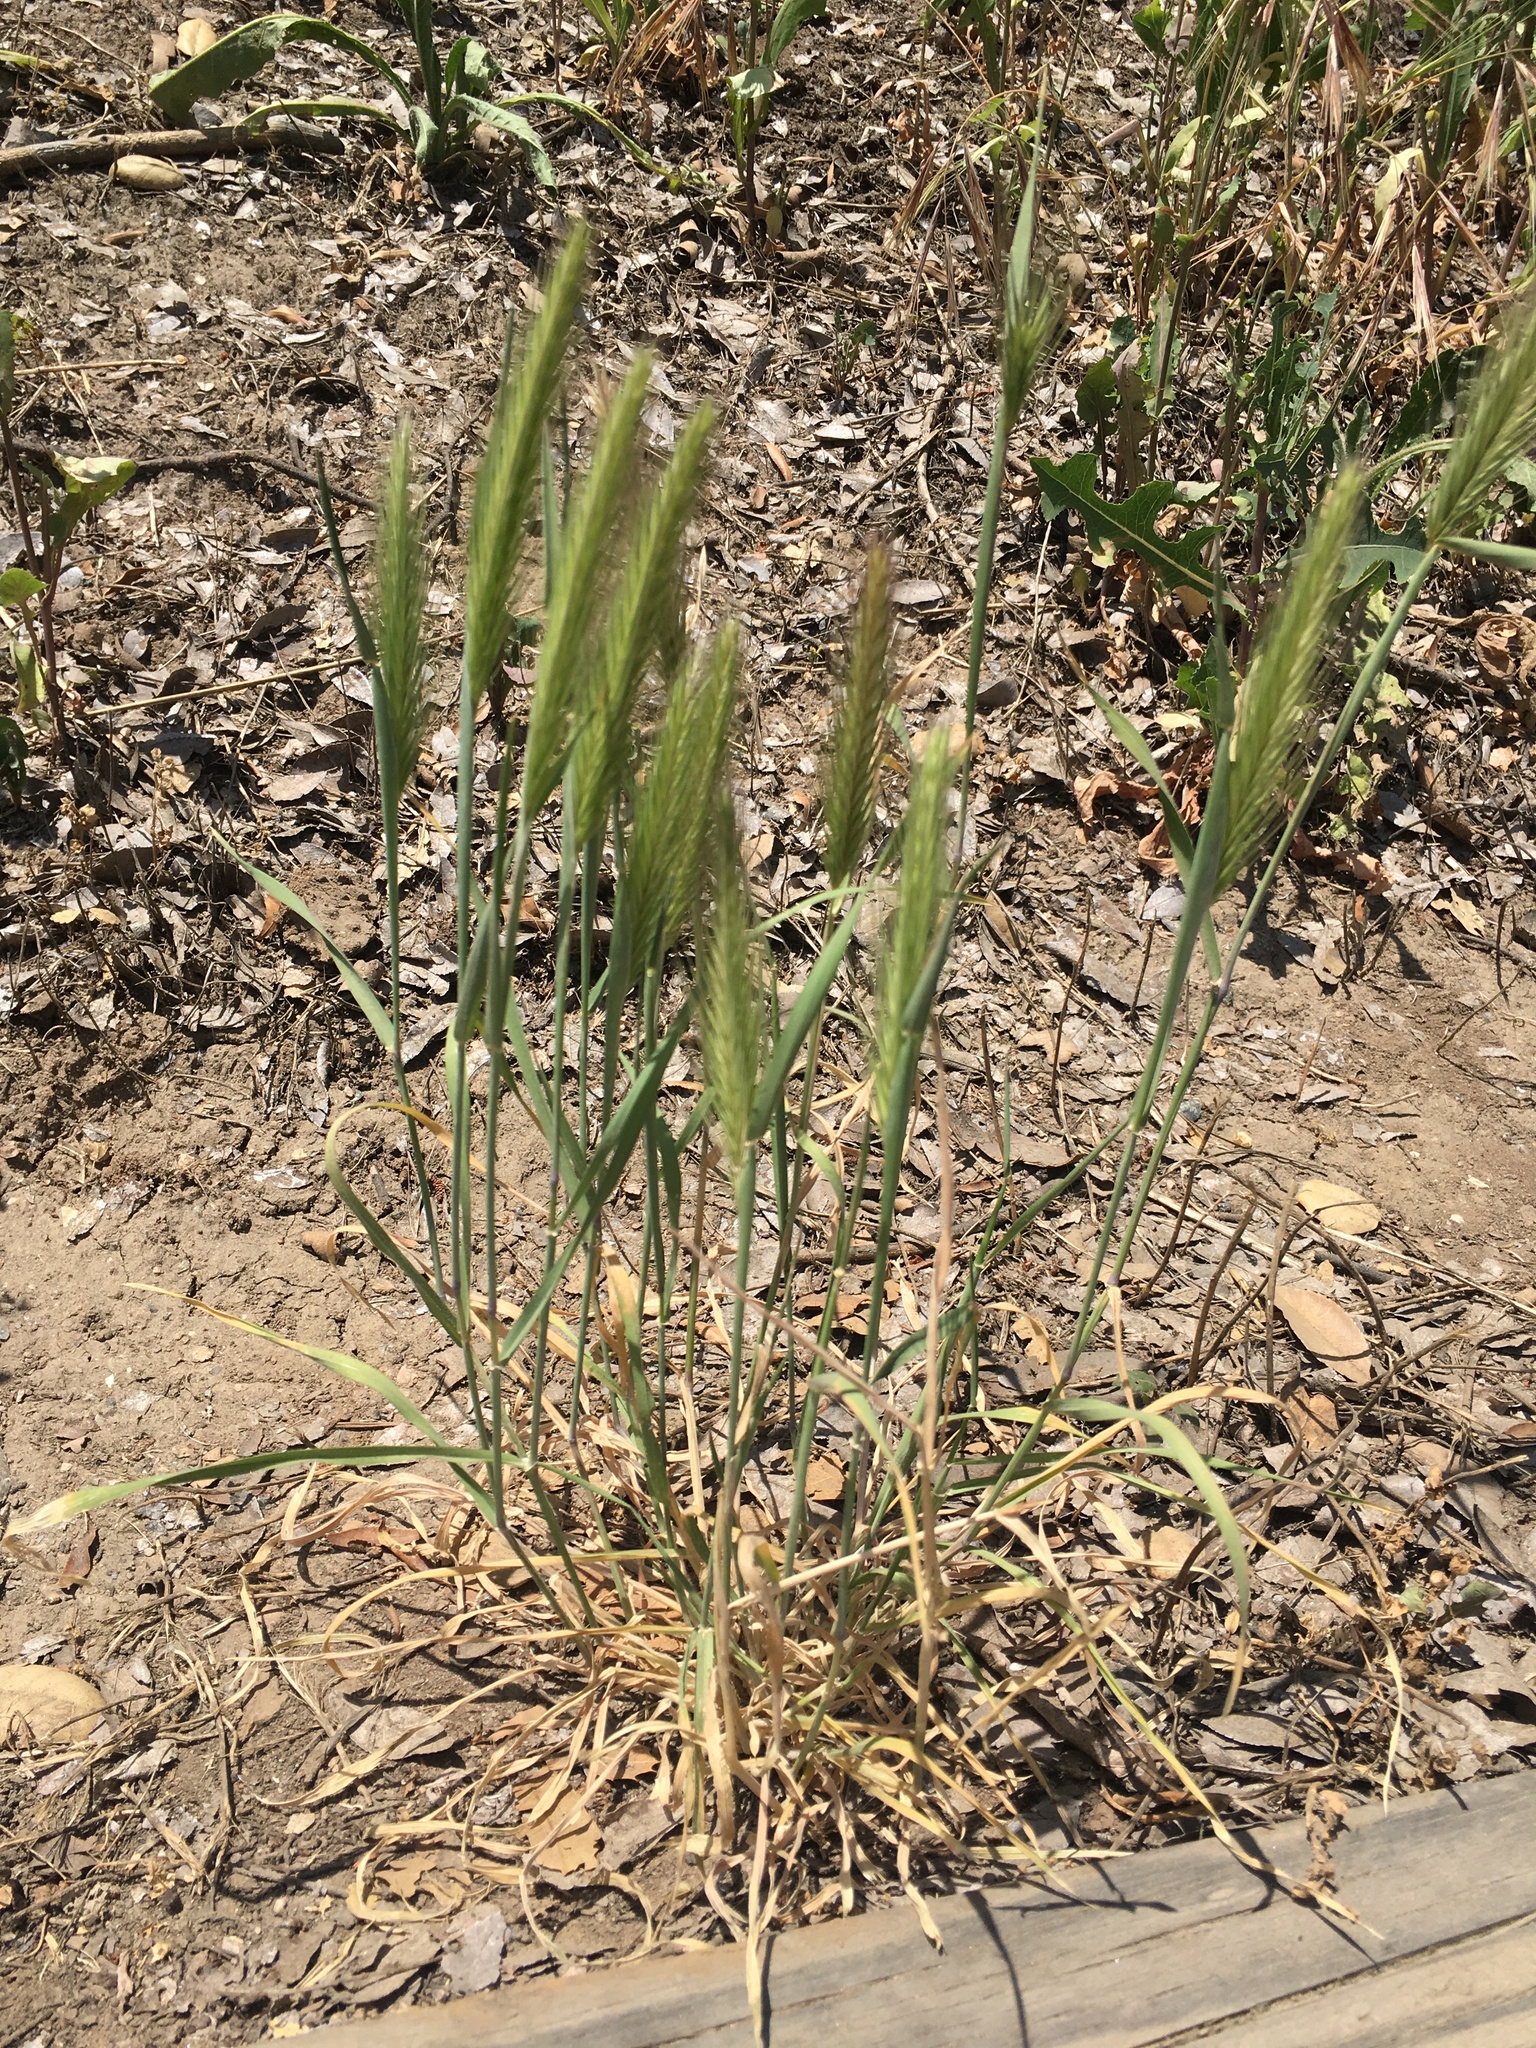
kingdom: Plantae
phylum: Tracheophyta
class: Liliopsida
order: Poales
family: Poaceae
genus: Hordeum
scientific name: Hordeum murinum
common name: Wall barley
